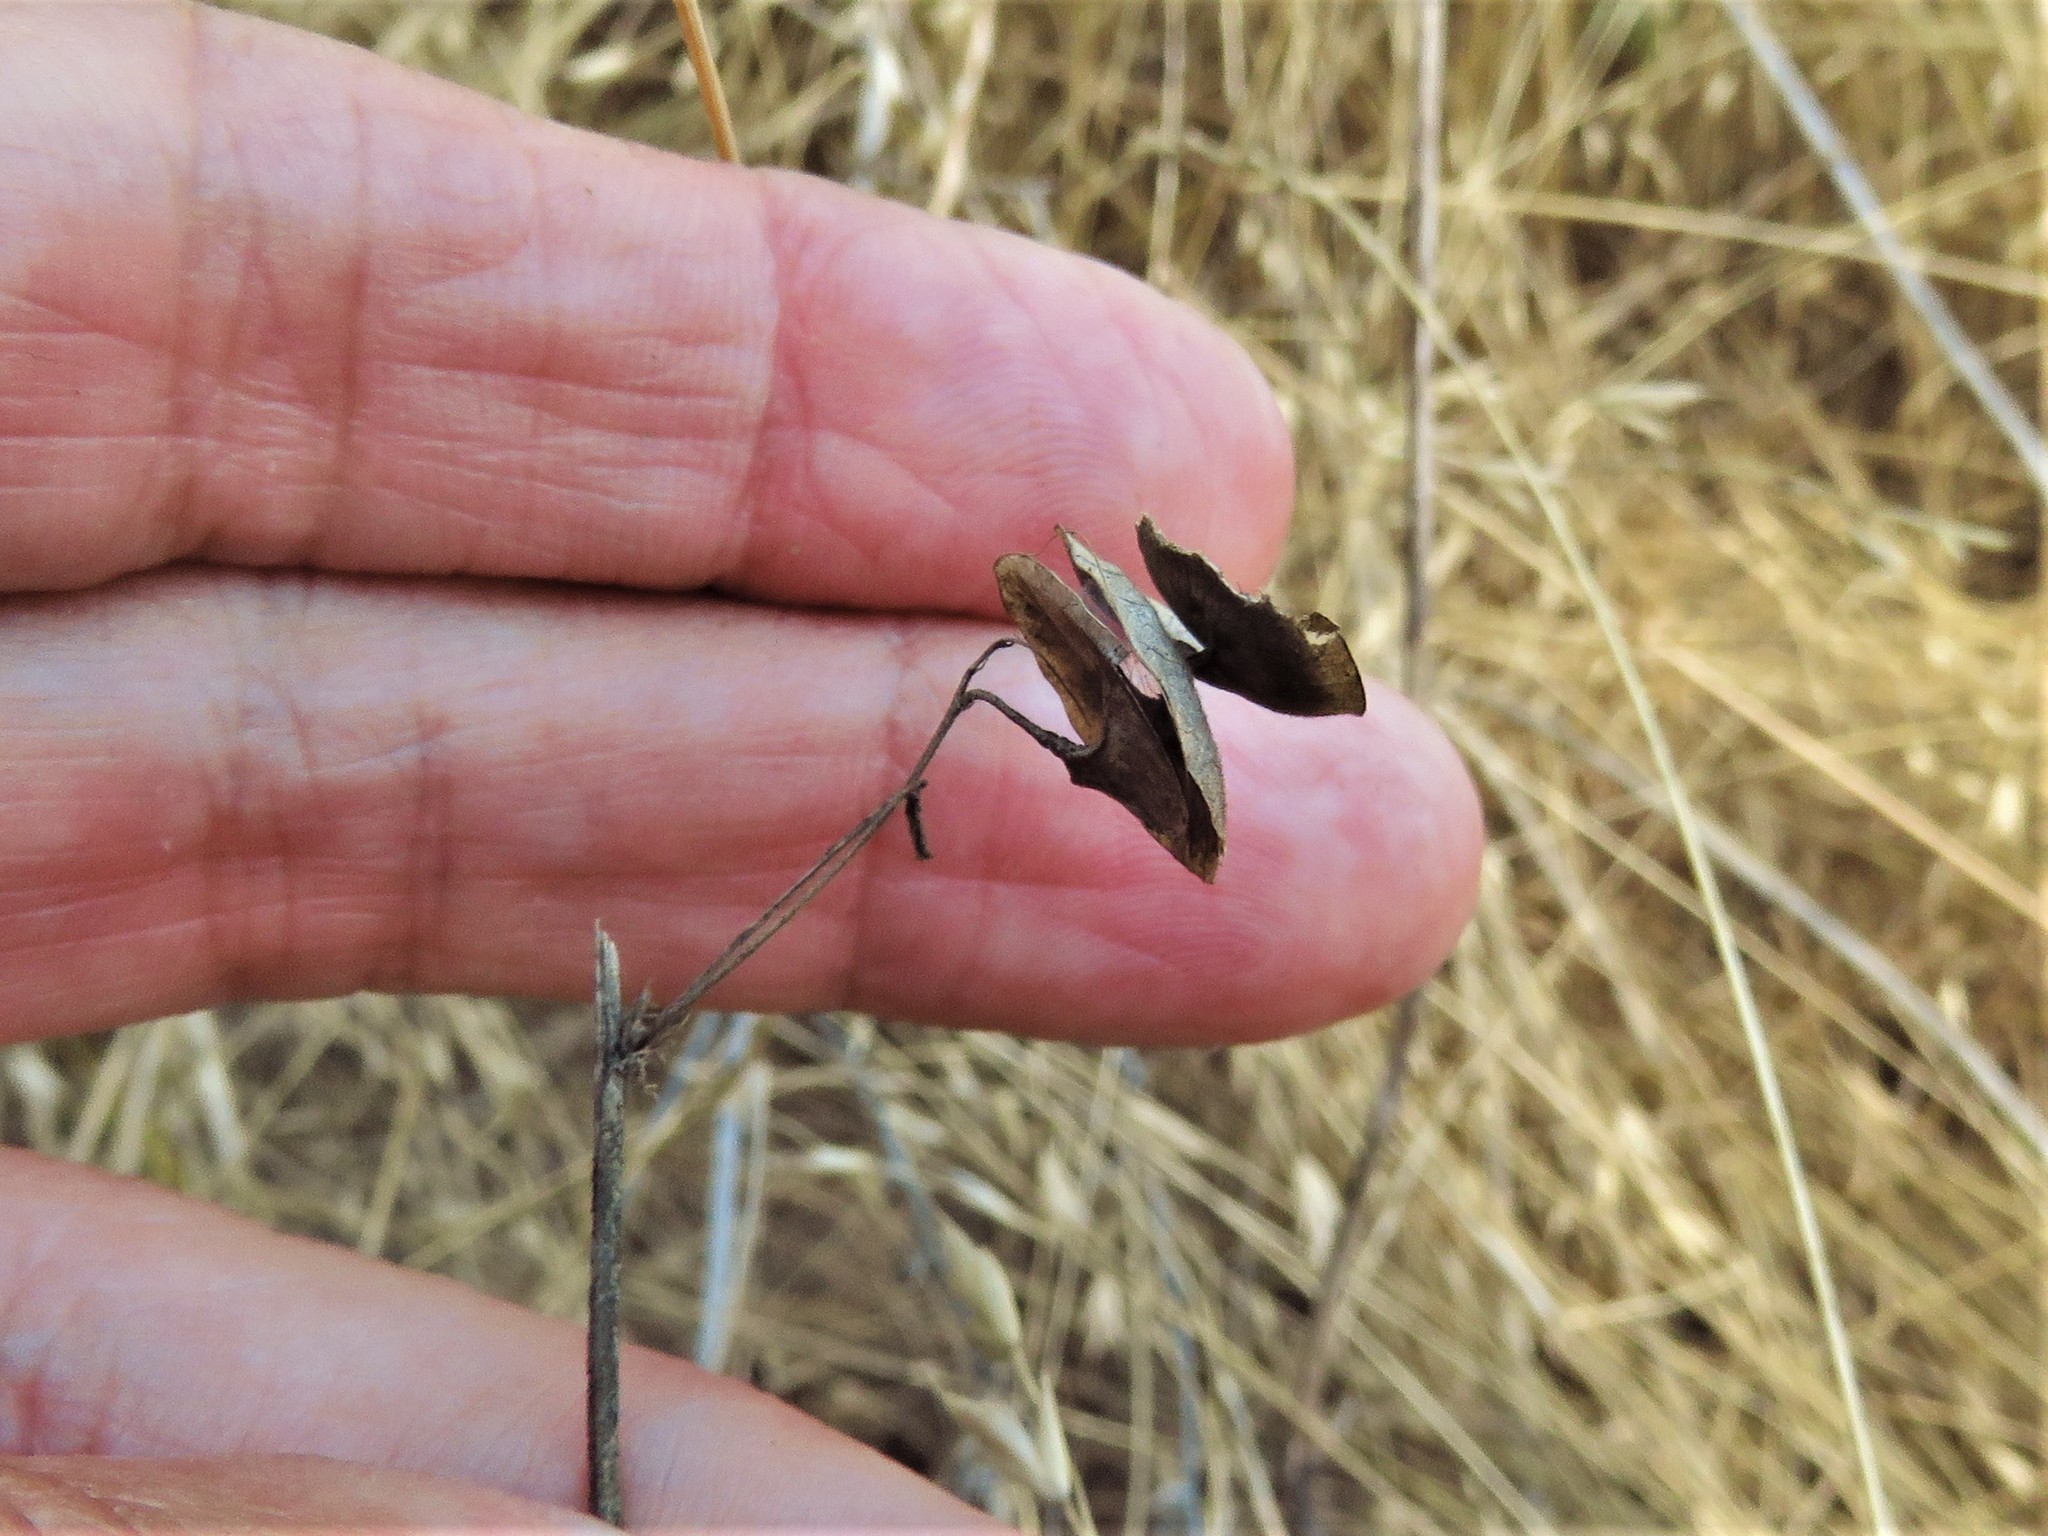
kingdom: Plantae
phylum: Tracheophyta
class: Magnoliopsida
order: Fabales
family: Fabaceae
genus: Medicago
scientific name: Medicago orbicularis
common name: Button medick
